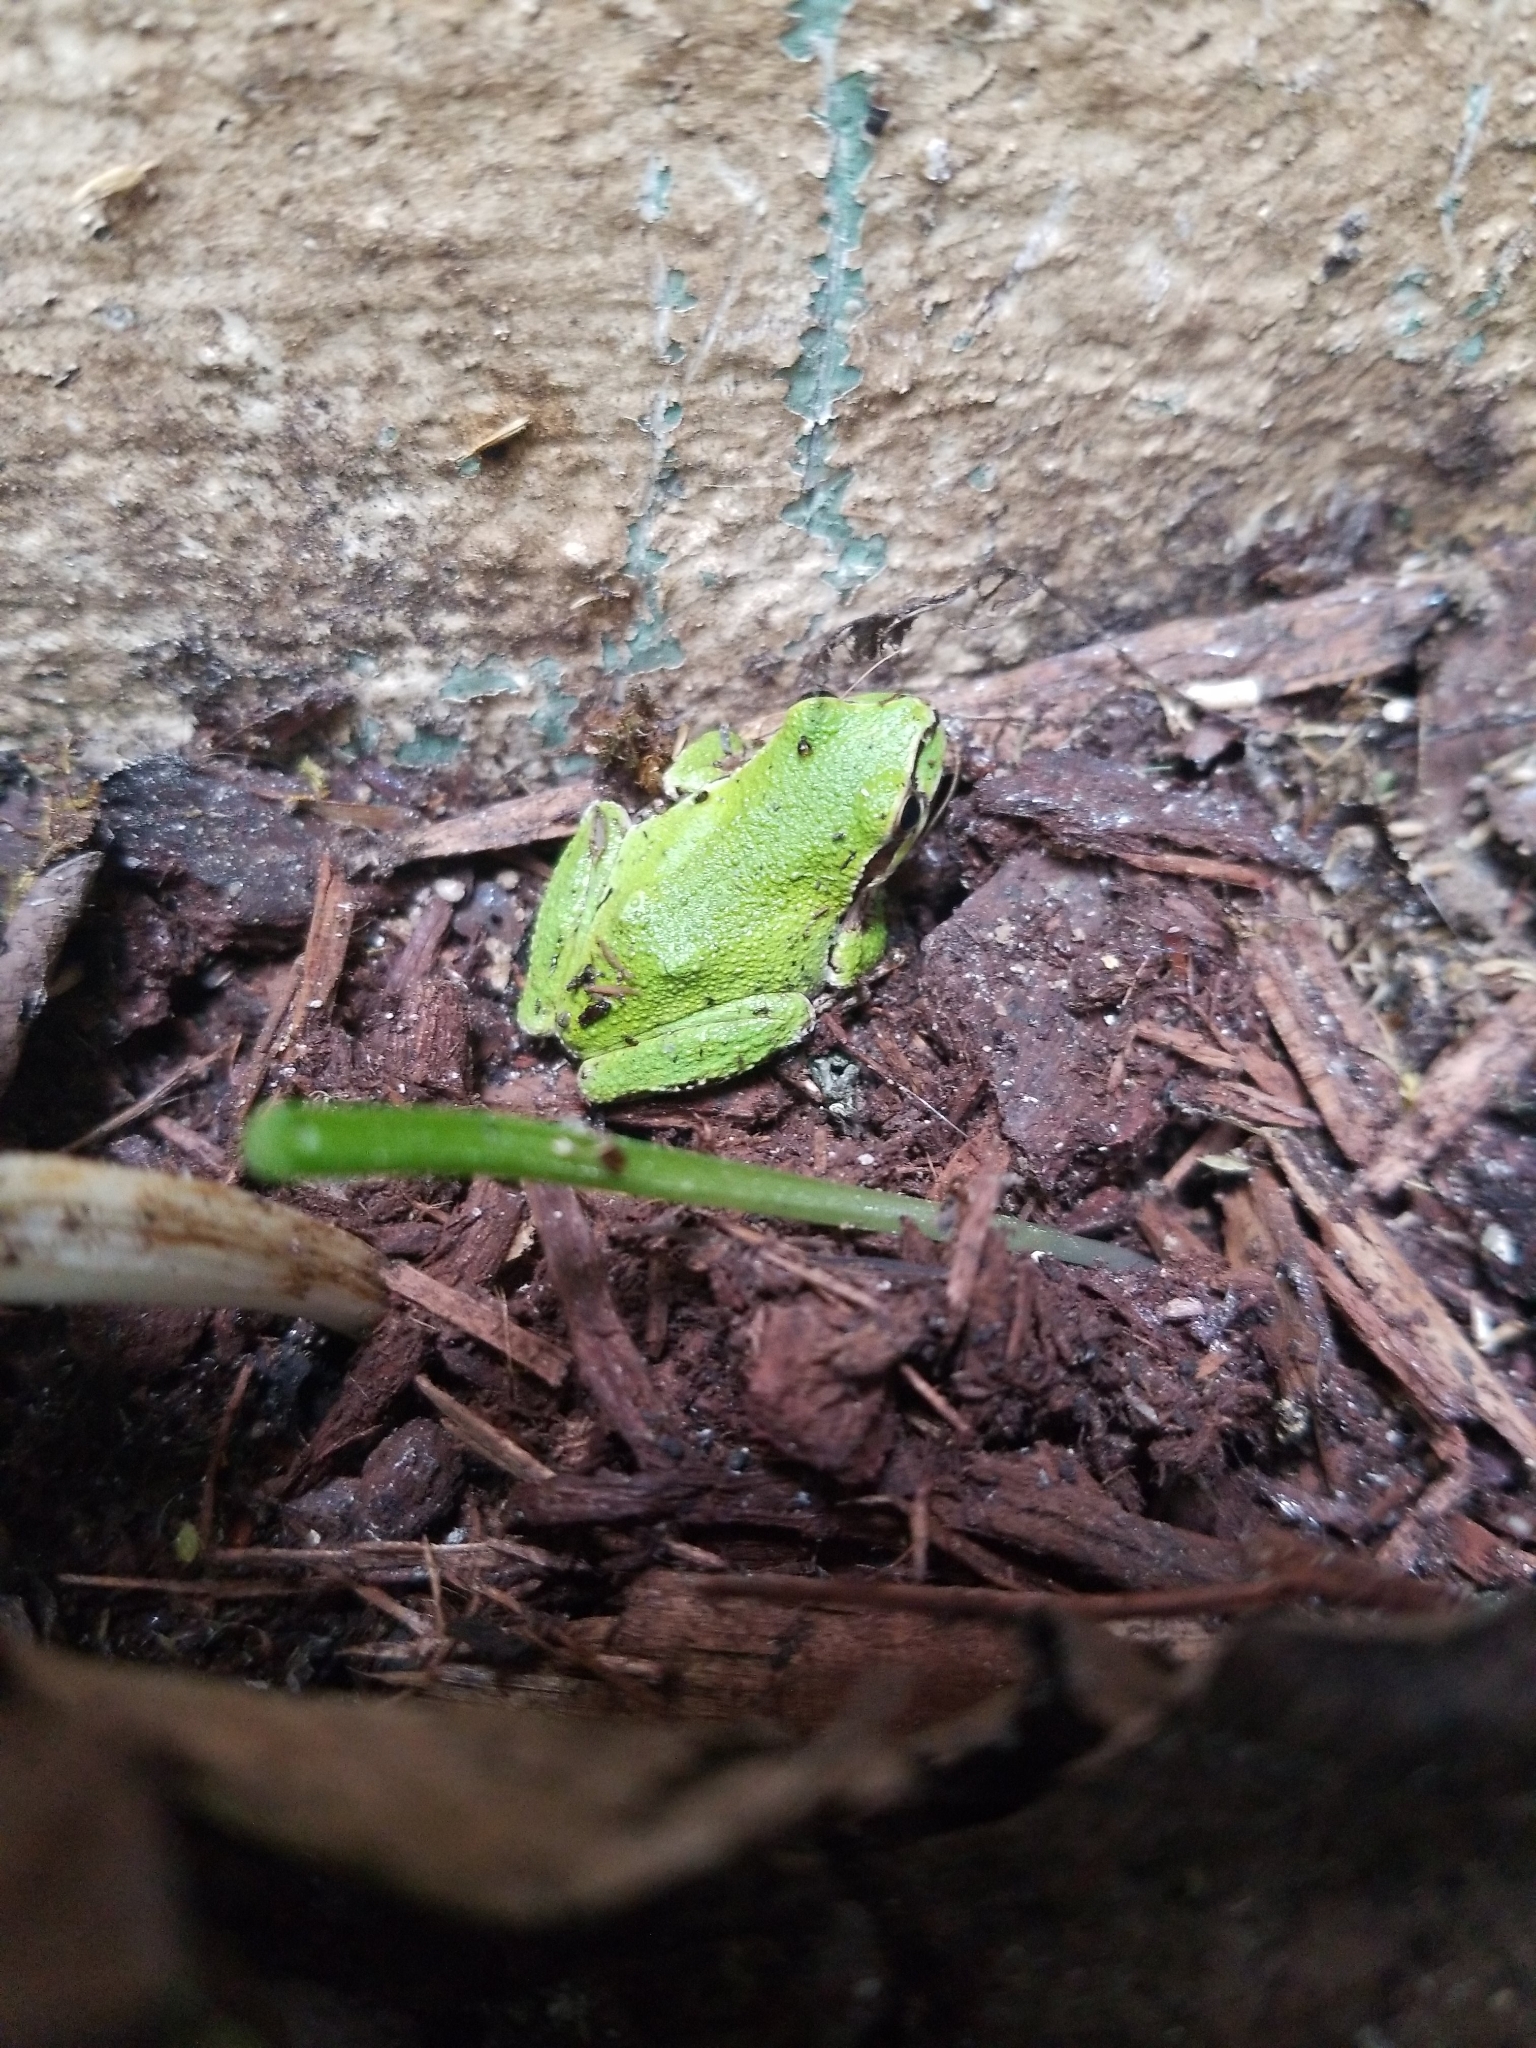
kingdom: Animalia
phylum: Chordata
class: Amphibia
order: Anura
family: Hylidae
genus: Pseudacris
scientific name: Pseudacris regilla
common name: Pacific chorus frog
